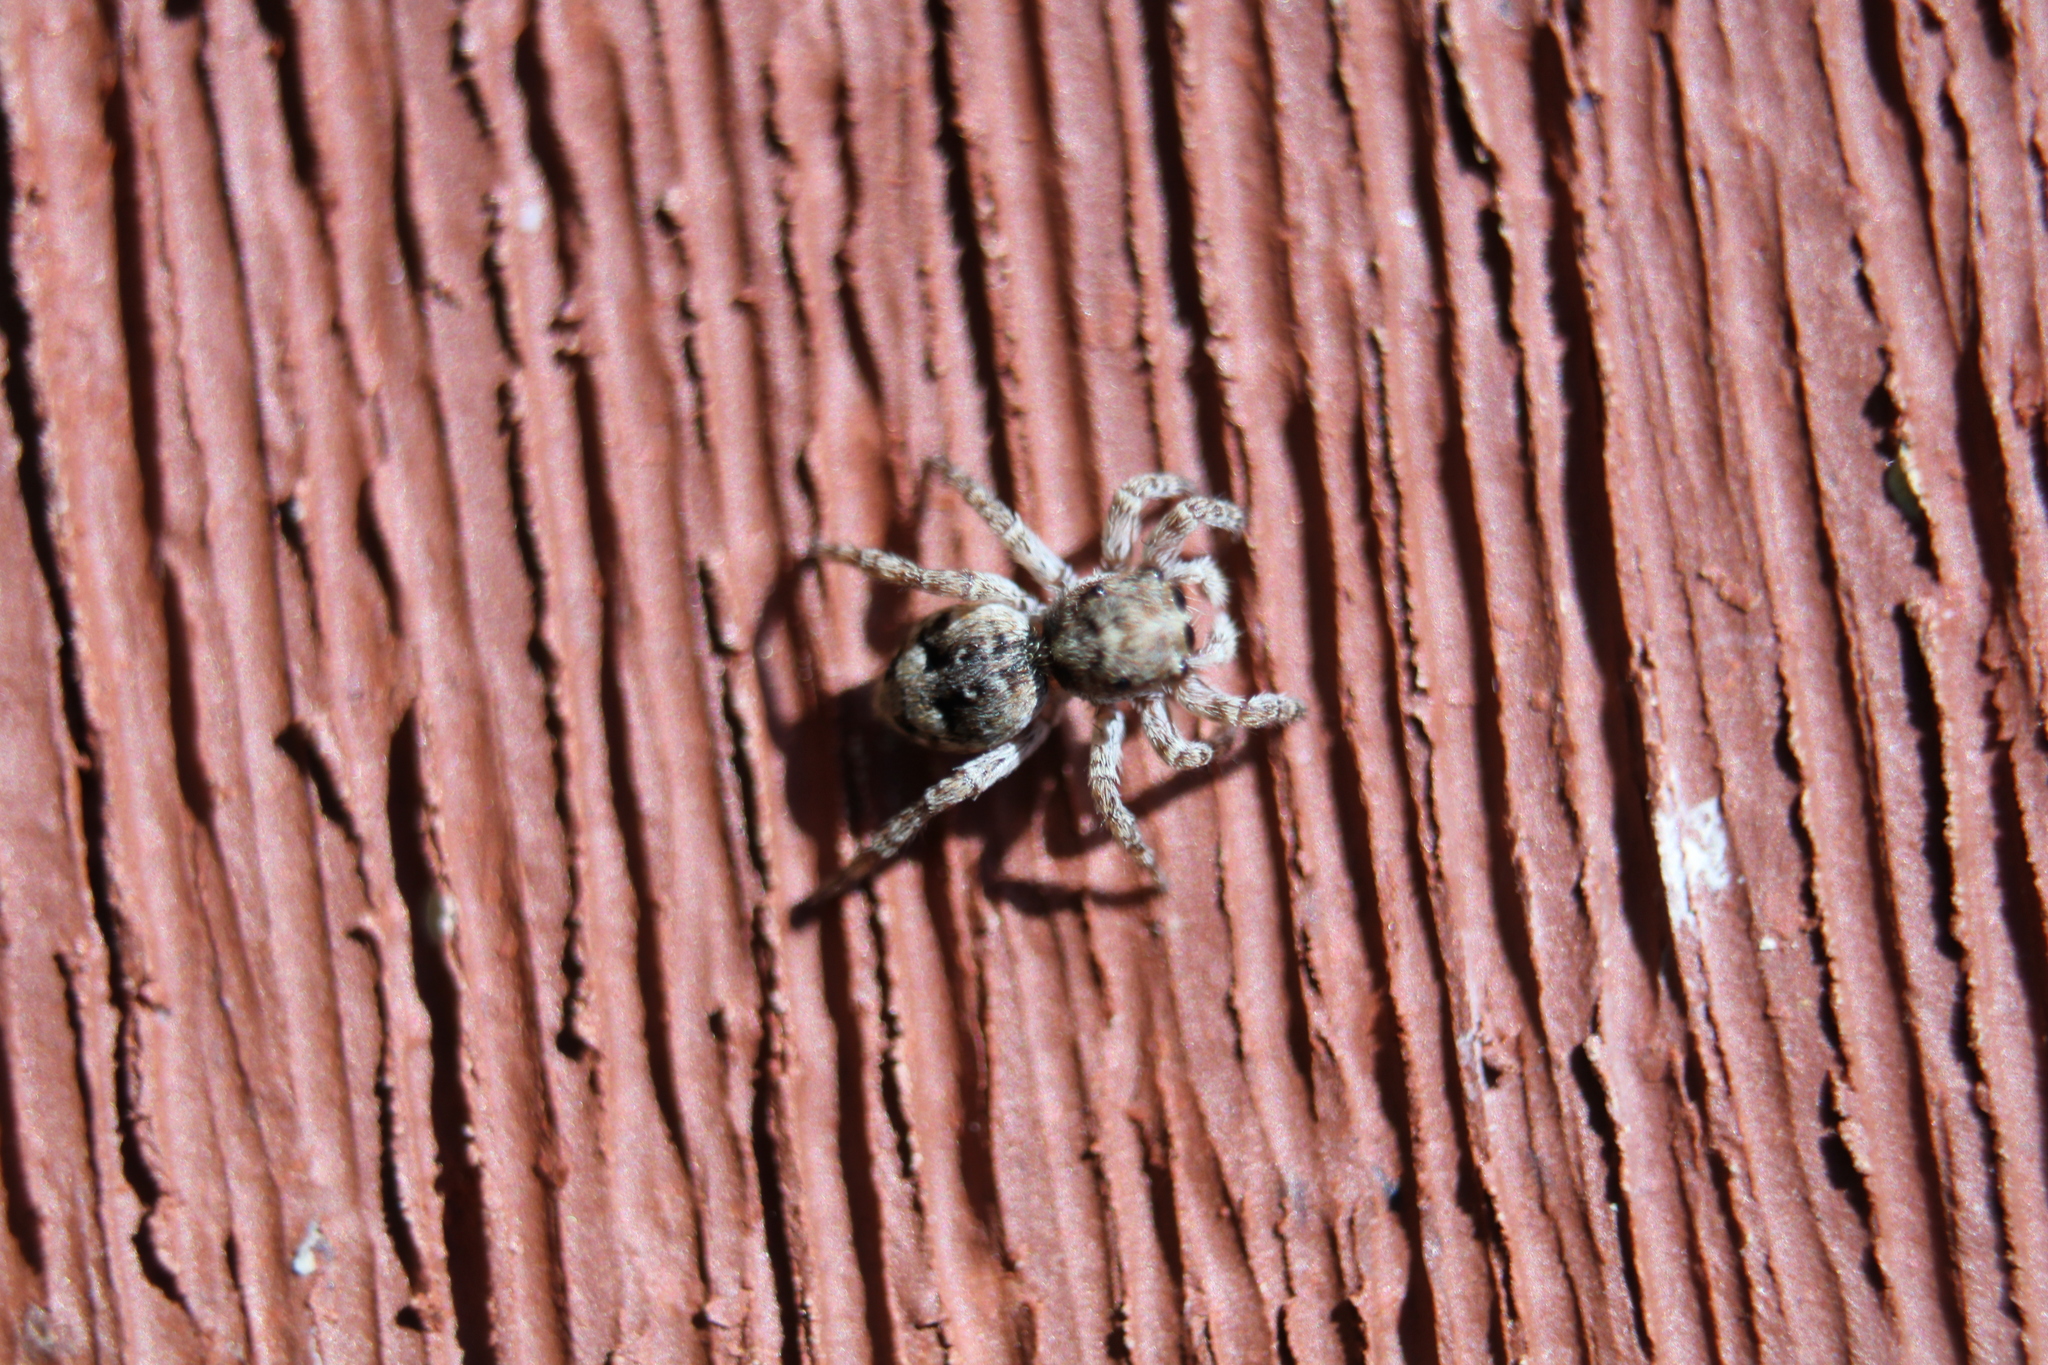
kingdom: Animalia
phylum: Arthropoda
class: Arachnida
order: Araneae
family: Salticidae
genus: Attulus
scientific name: Attulus fasciger
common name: Asiatic wall jumping spider
